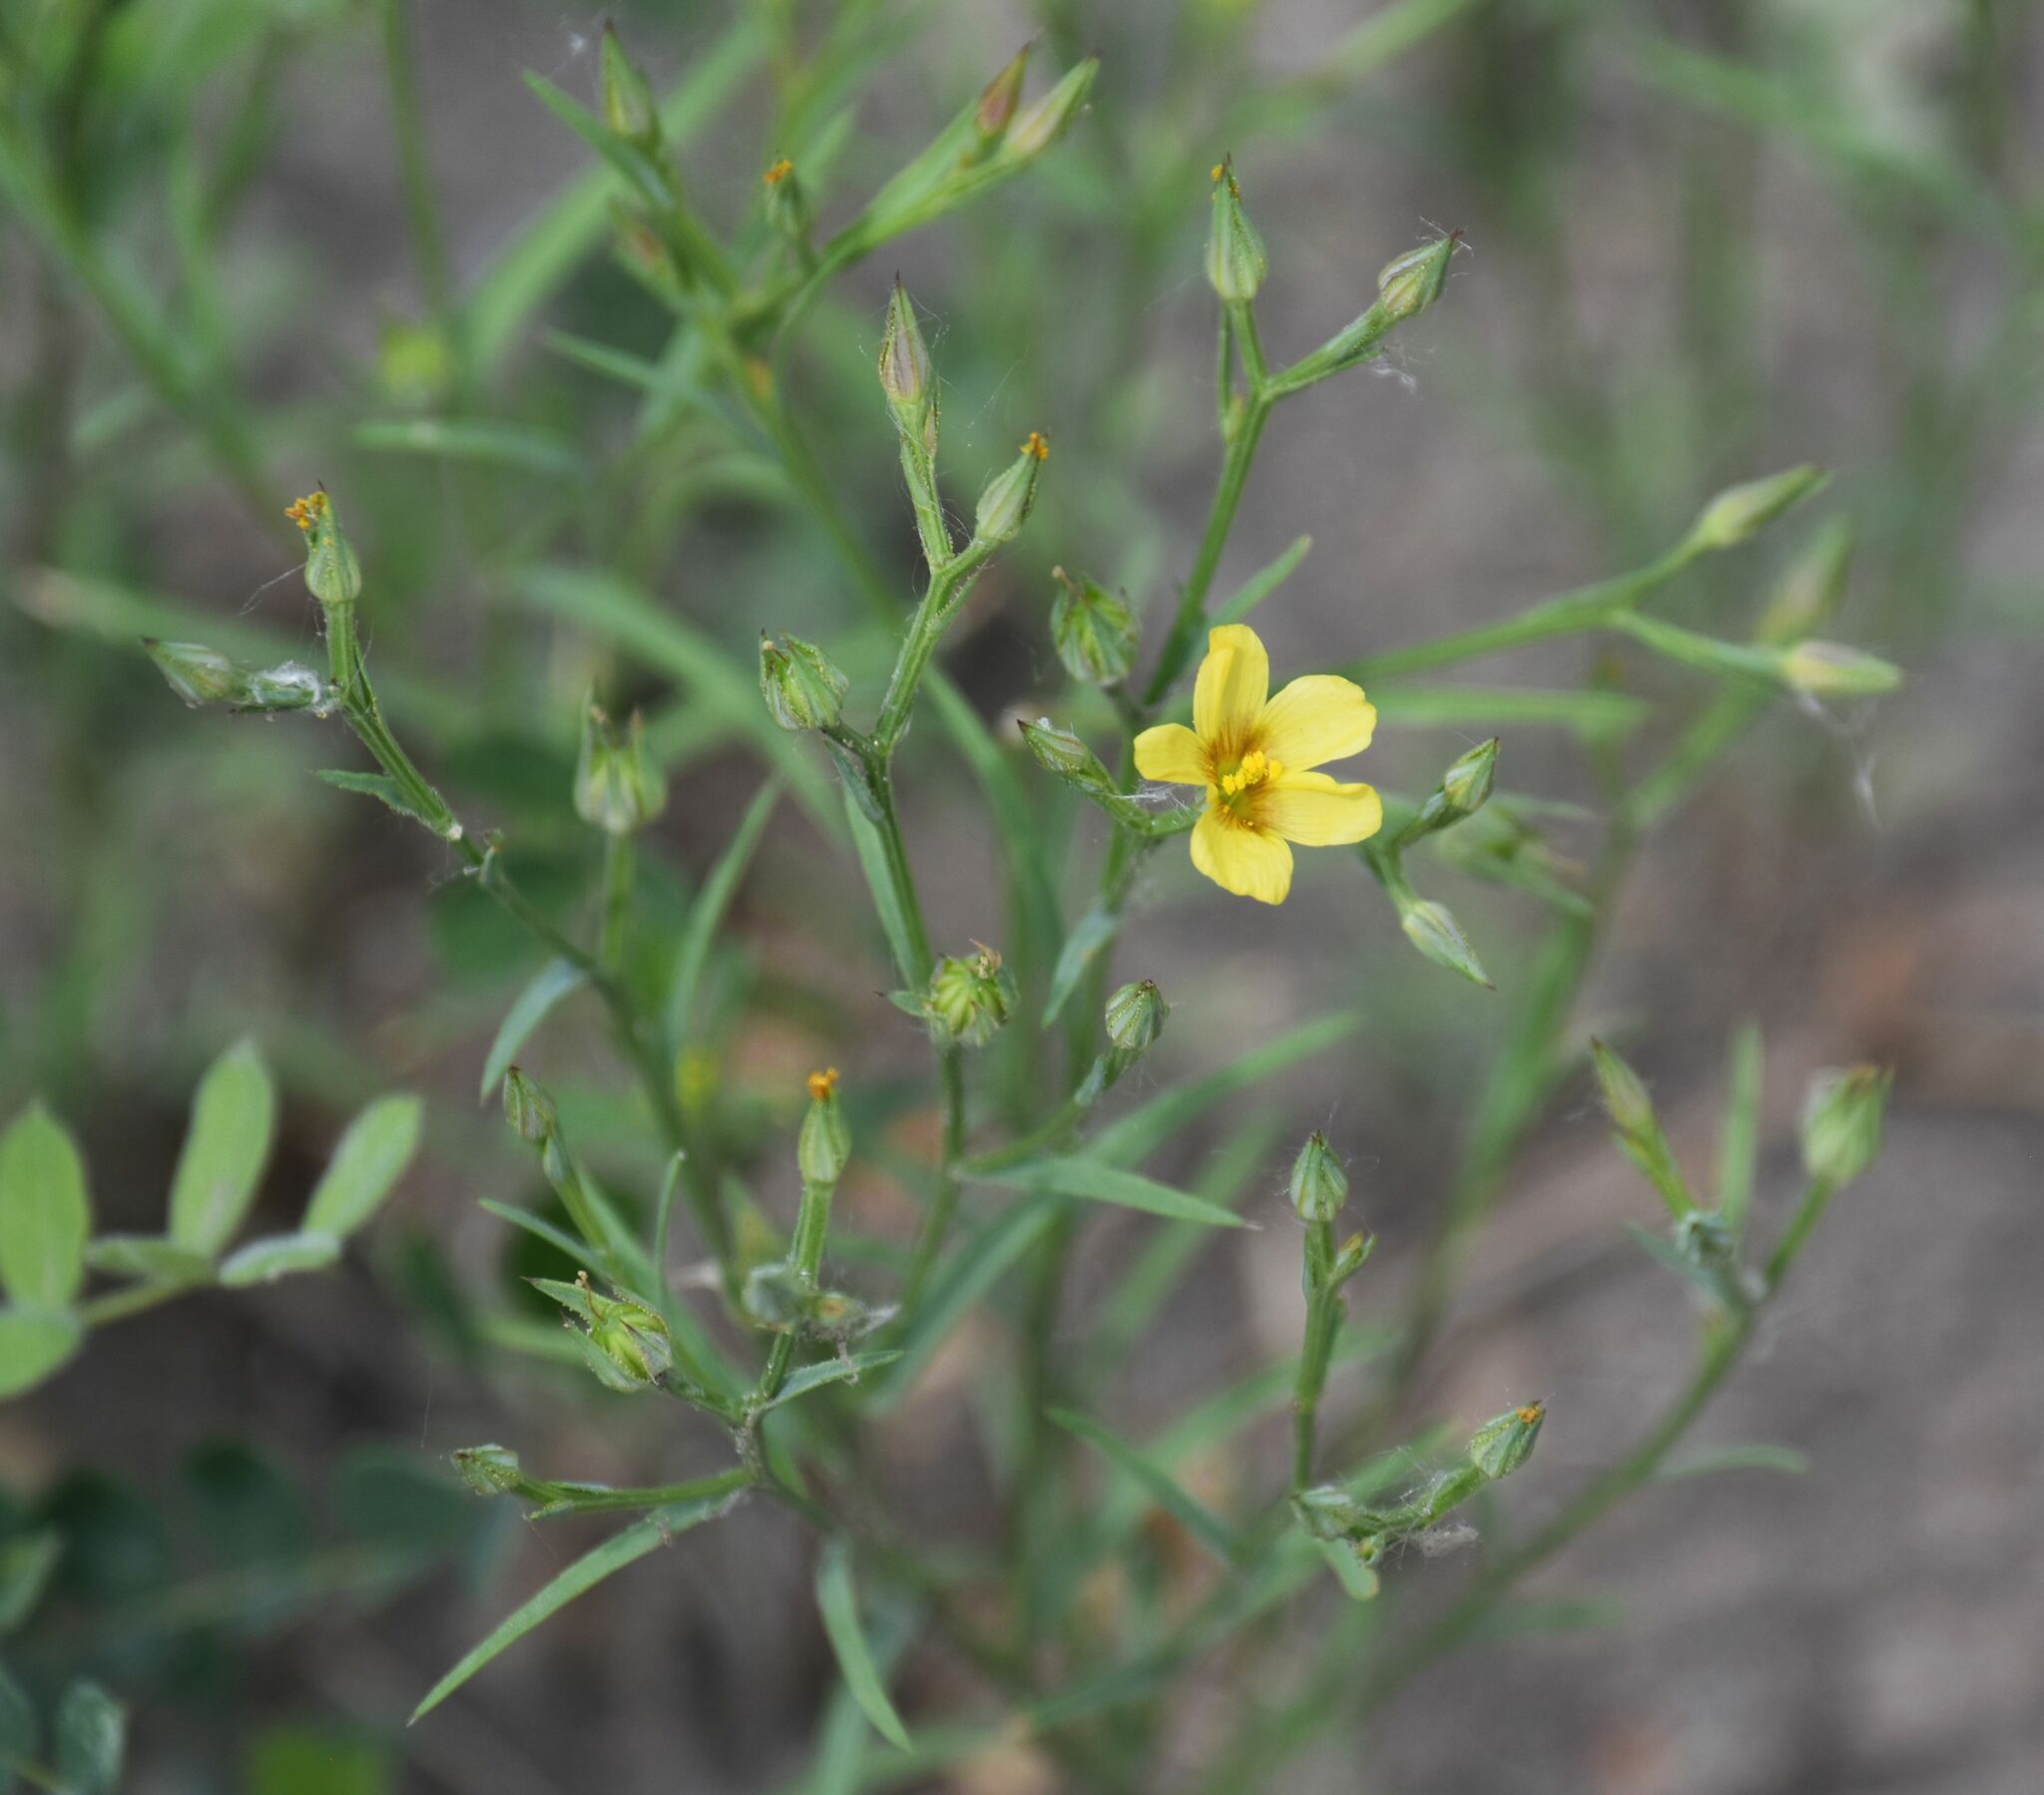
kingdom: Plantae
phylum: Tracheophyta
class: Magnoliopsida
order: Malpighiales
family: Linaceae
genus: Linum
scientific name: Linum compactum
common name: Wyoming flax
